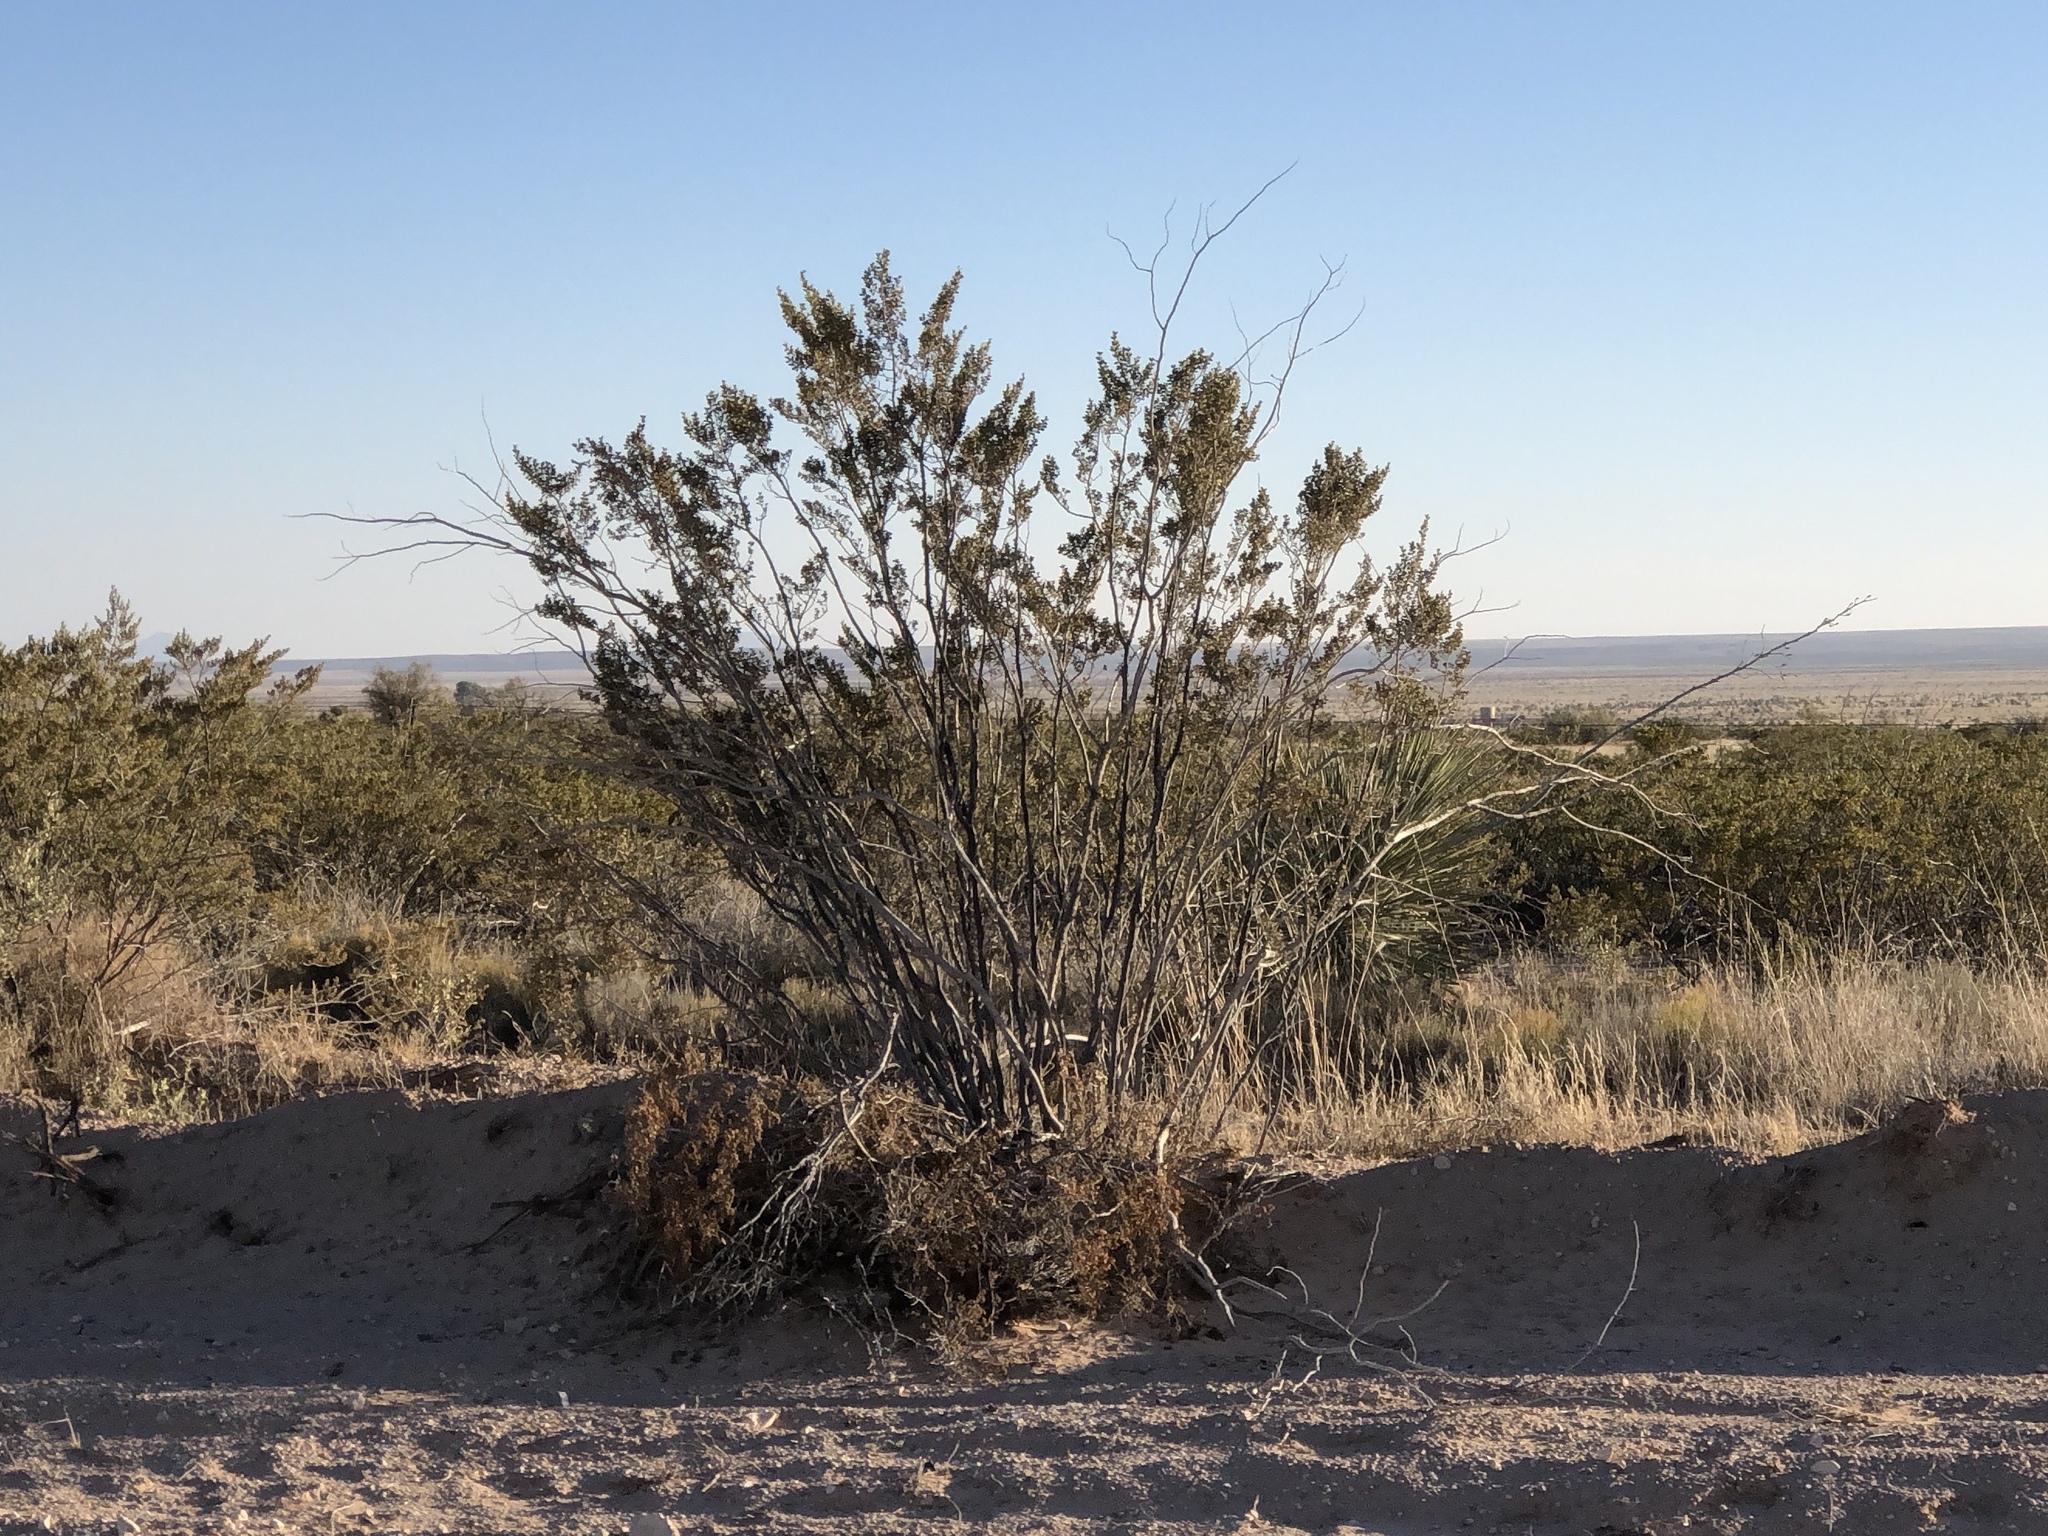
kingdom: Plantae
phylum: Tracheophyta
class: Magnoliopsida
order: Zygophyllales
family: Zygophyllaceae
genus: Larrea
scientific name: Larrea tridentata
